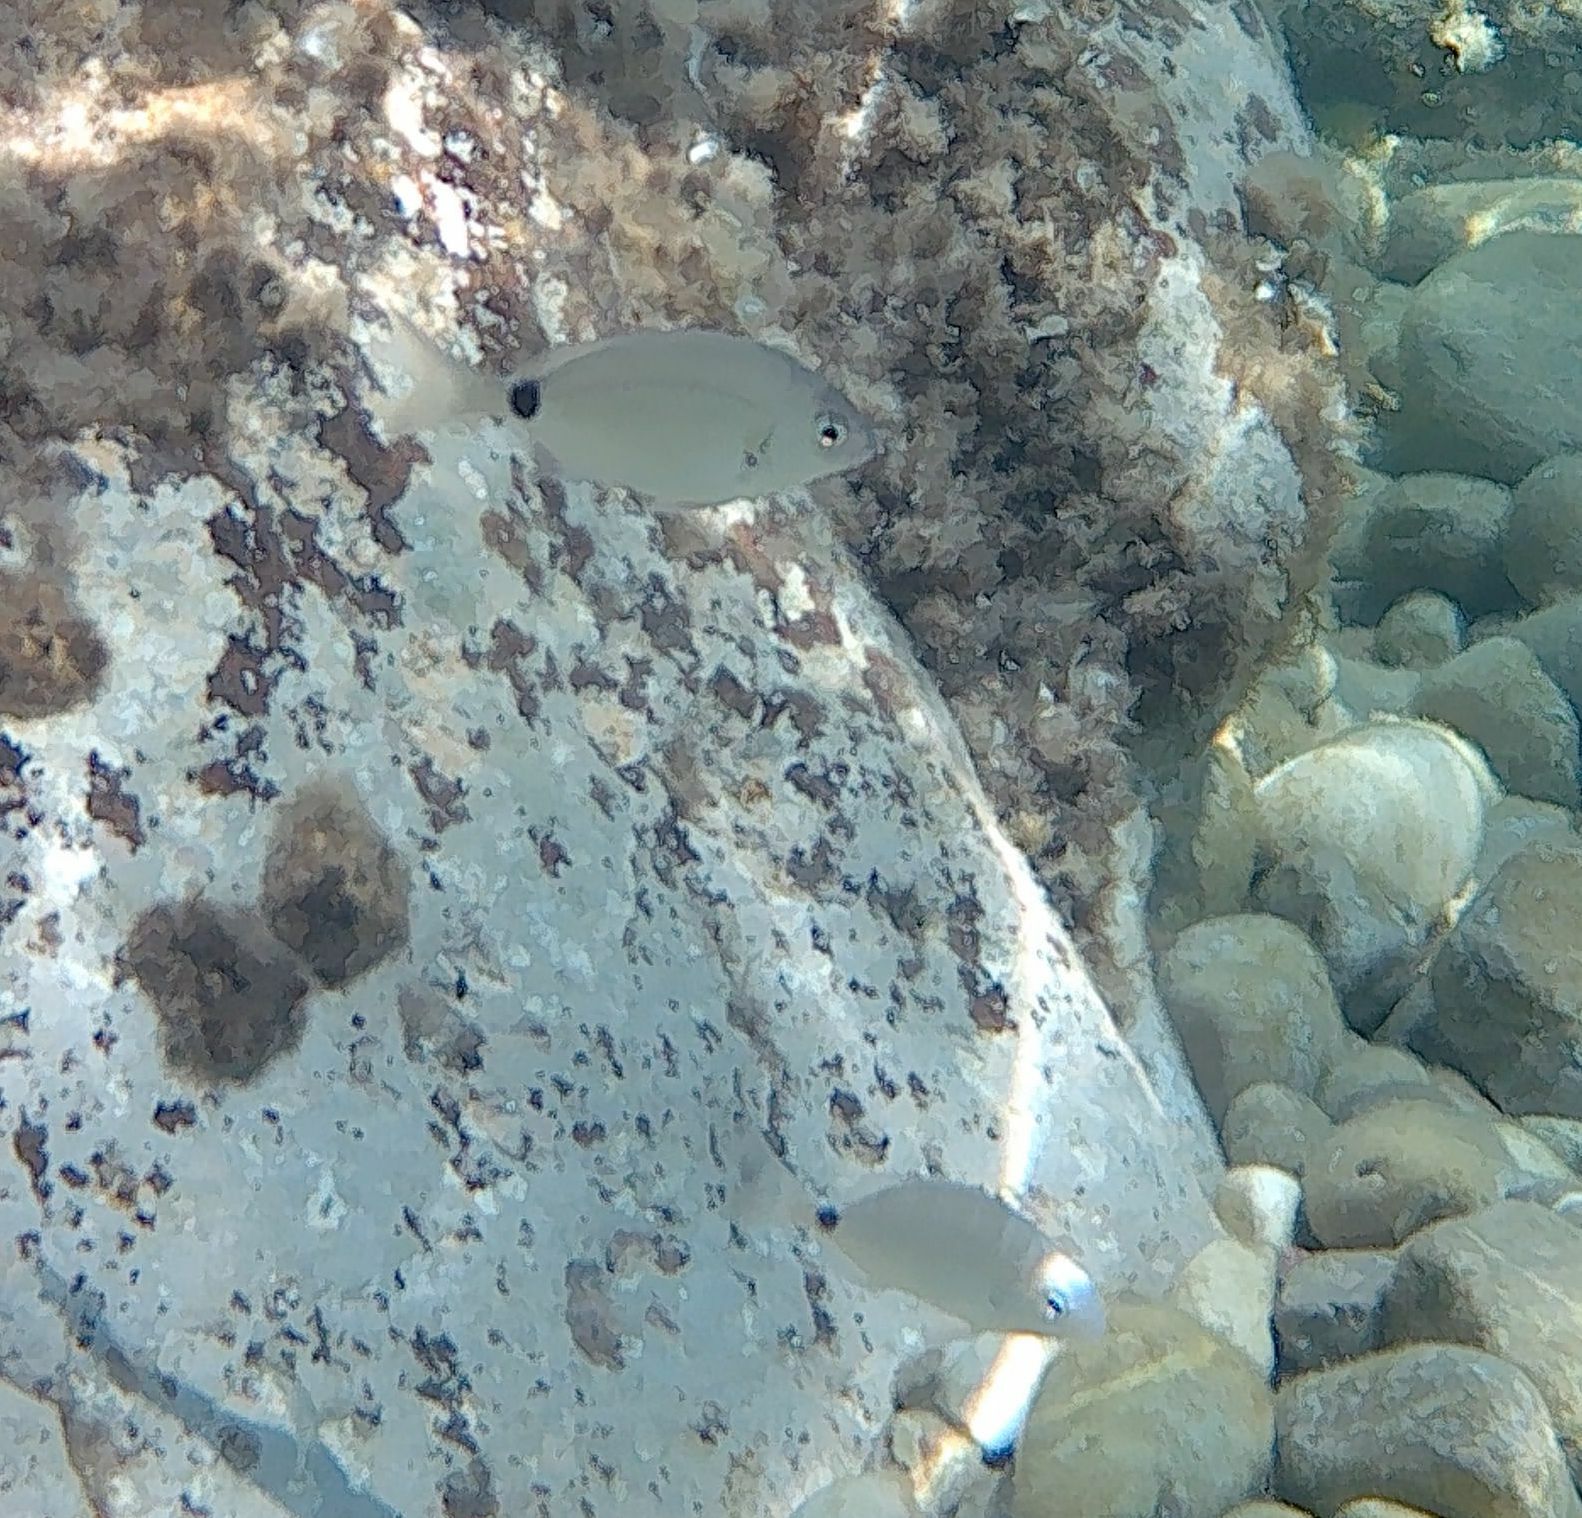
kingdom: Animalia
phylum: Chordata
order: Perciformes
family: Sparidae
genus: Diplodus
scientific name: Diplodus sargus
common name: White seabream
